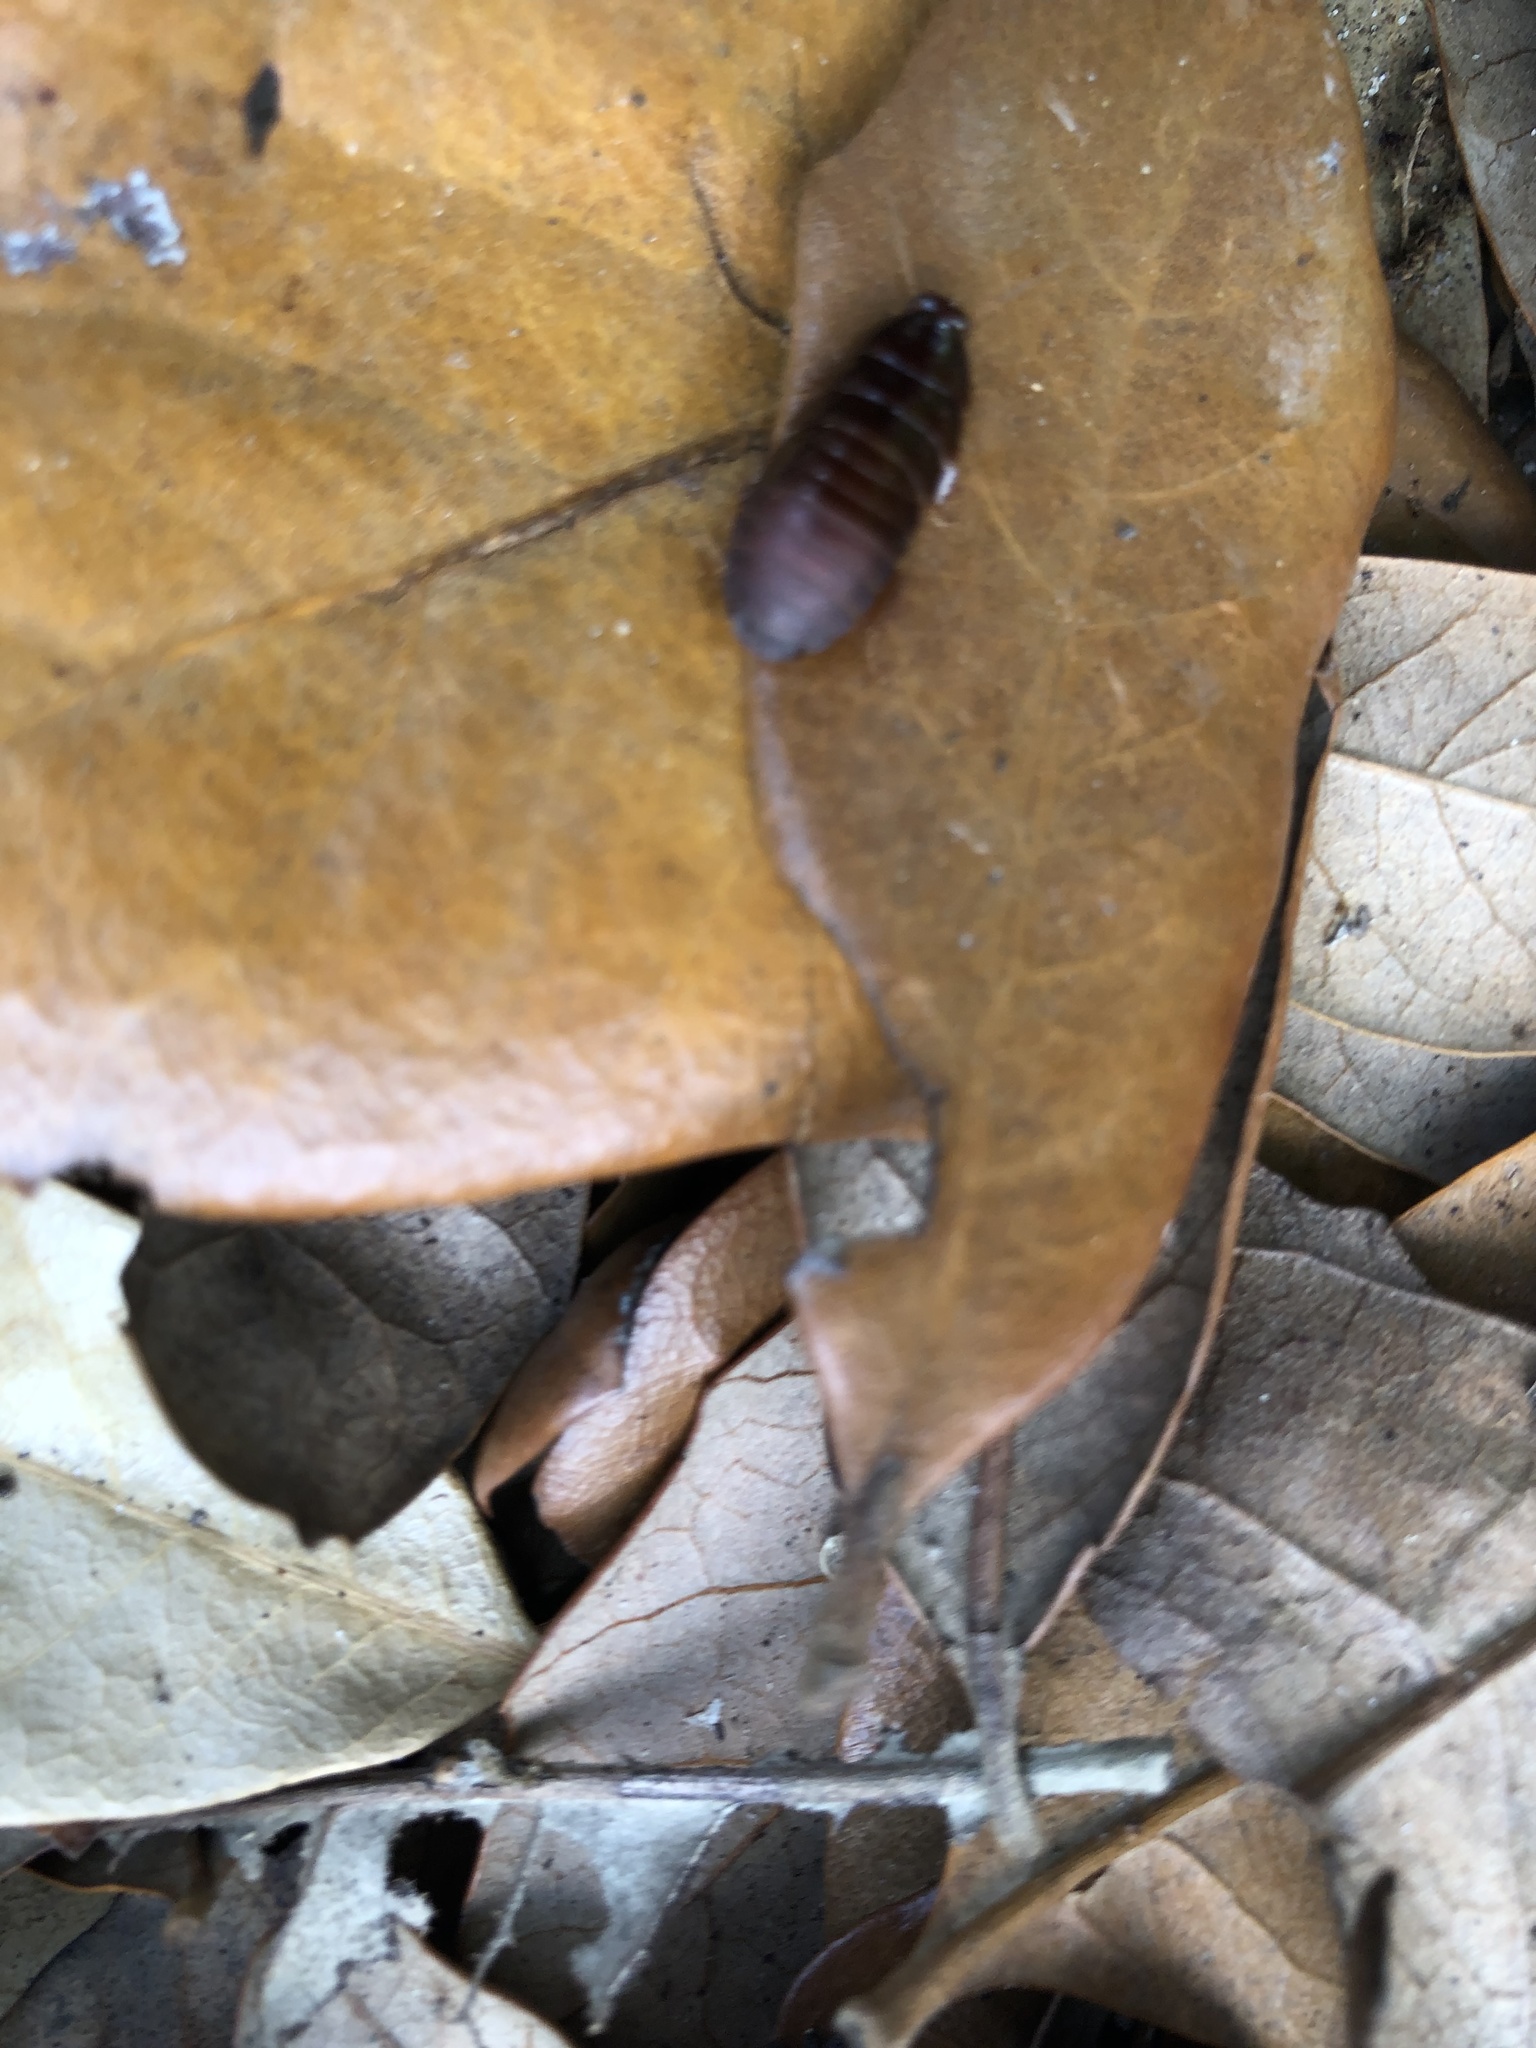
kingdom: Animalia
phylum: Arthropoda
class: Insecta
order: Blattodea
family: Blaberidae
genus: Pycnoscelus
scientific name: Pycnoscelus surinamensis
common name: Surinam cockroach
